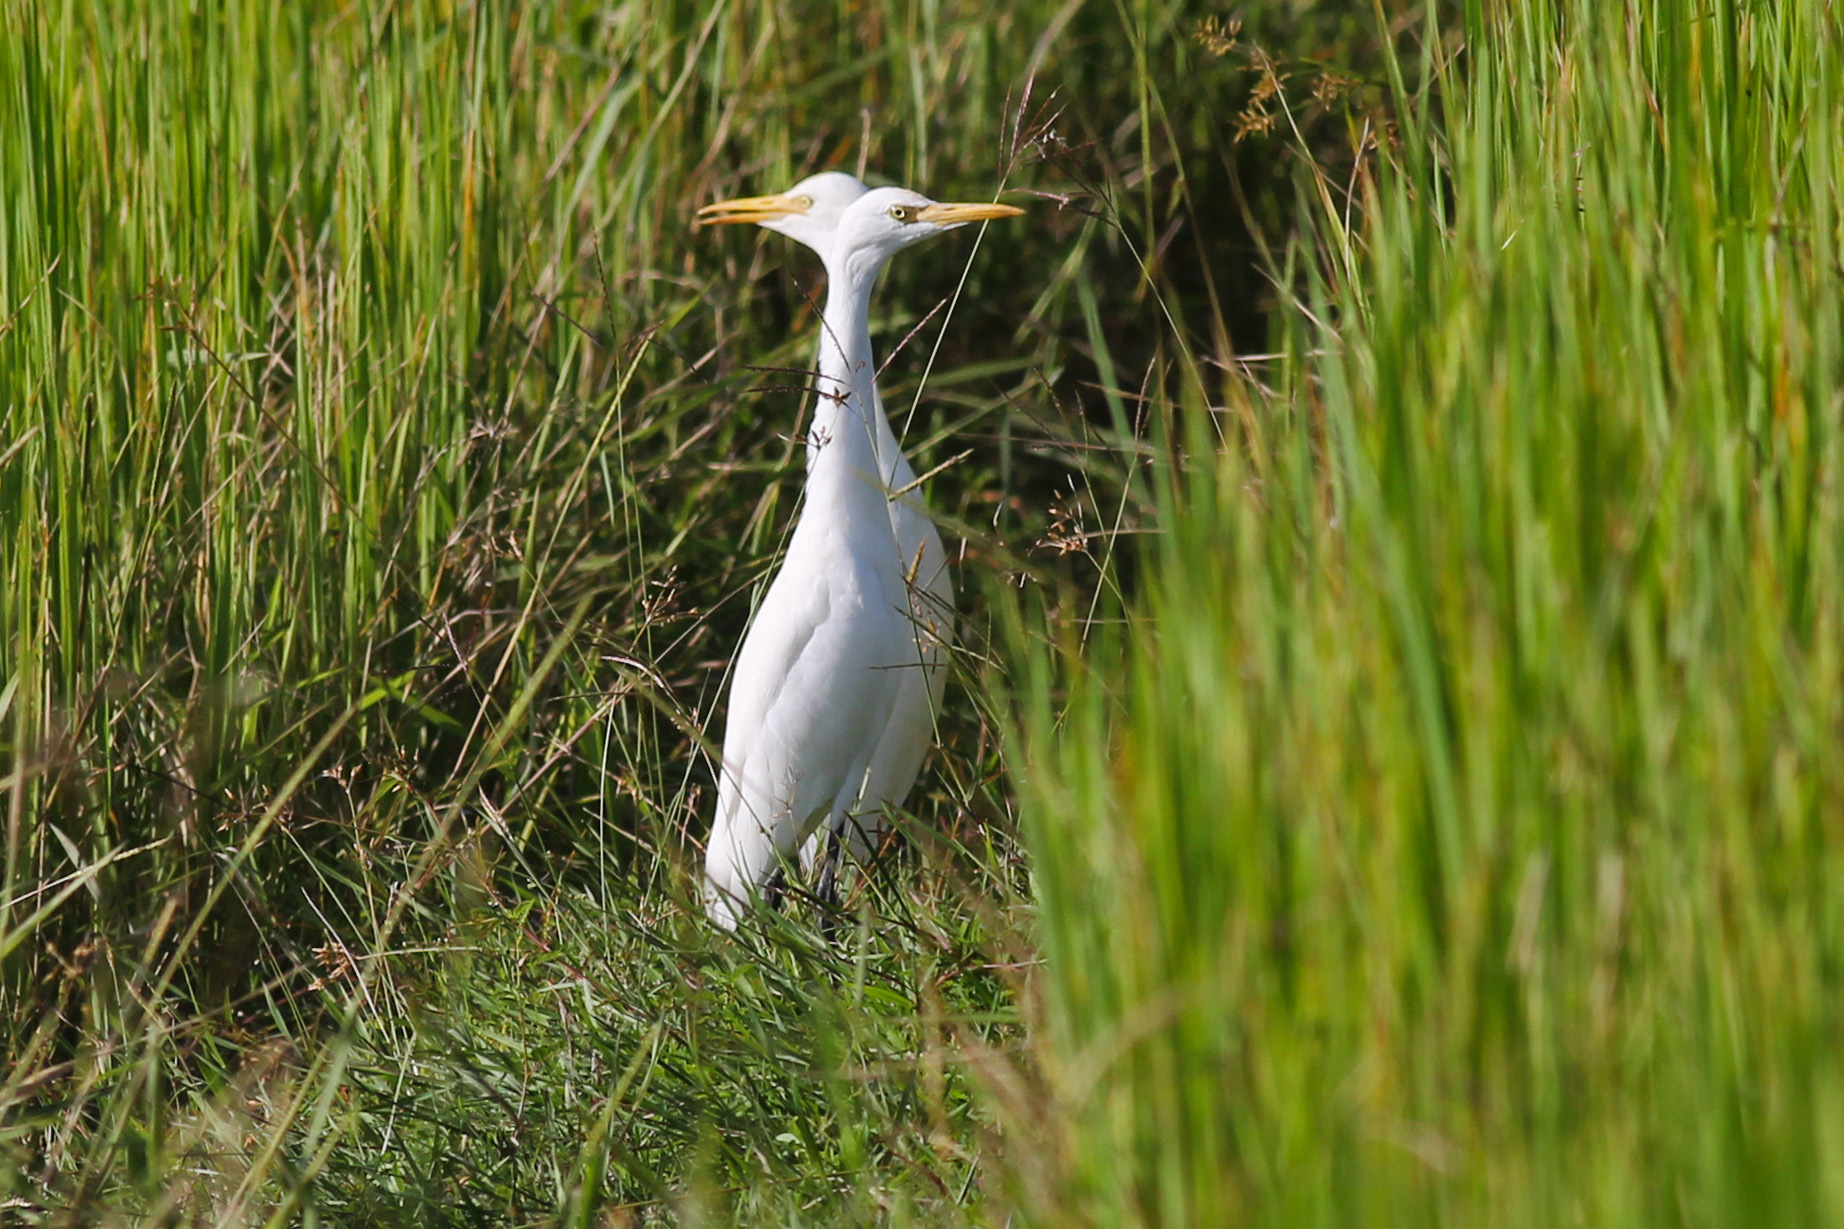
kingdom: Animalia
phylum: Chordata
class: Aves
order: Pelecaniformes
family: Ardeidae
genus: Bubulcus
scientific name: Bubulcus coromandus
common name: Eastern cattle egret
